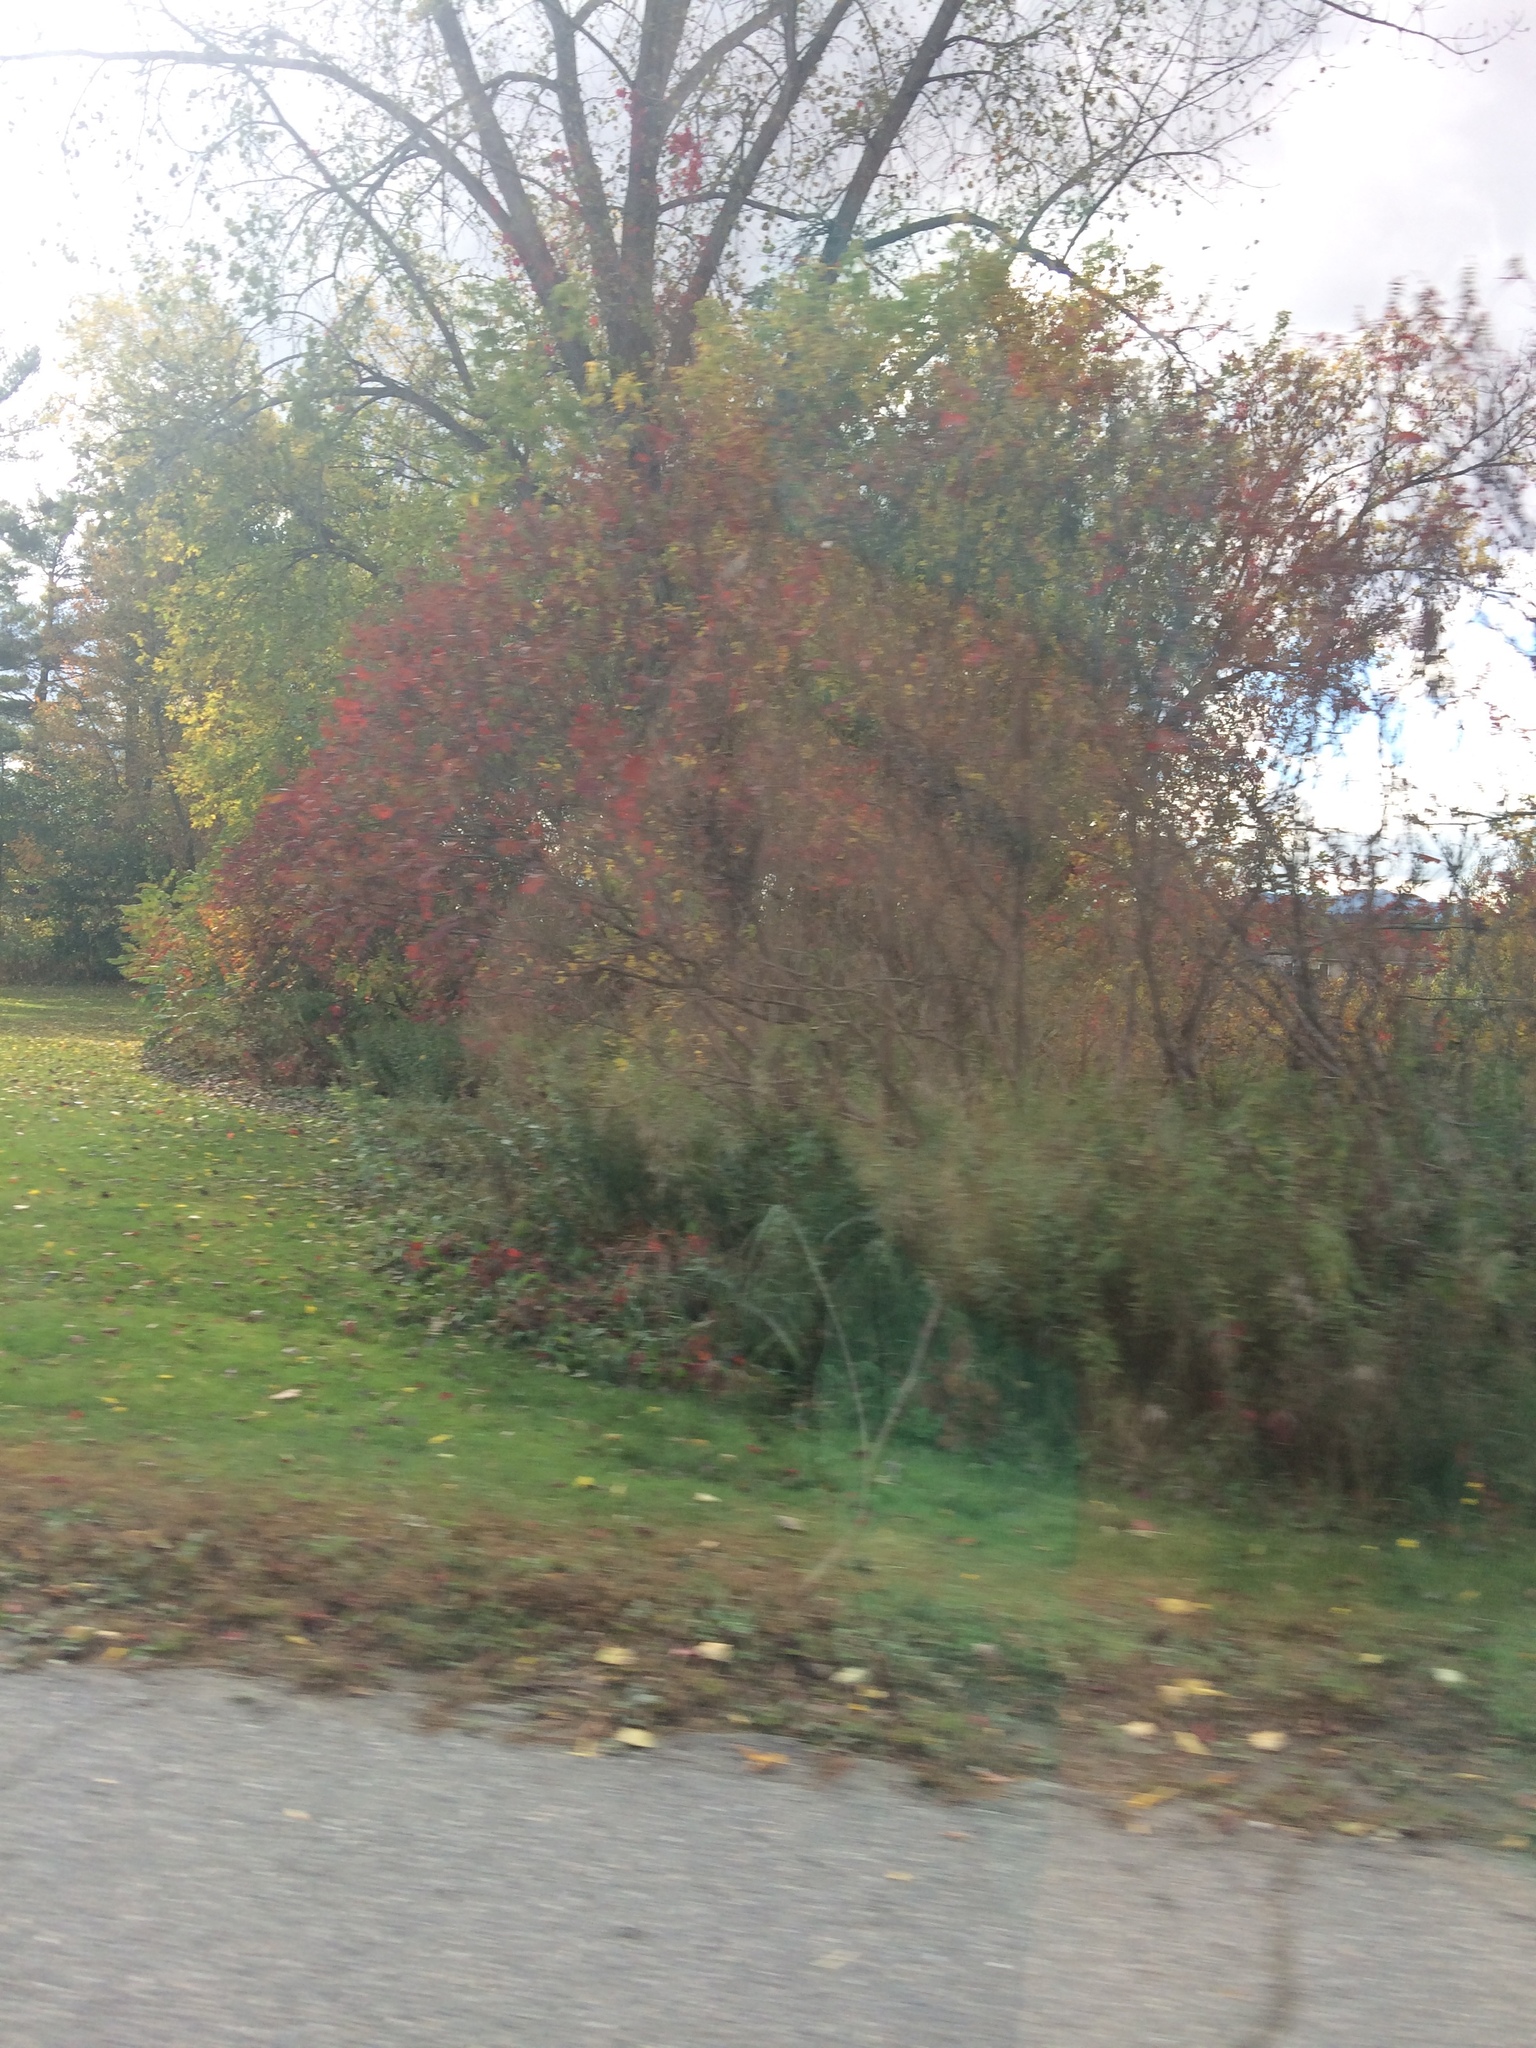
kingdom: Plantae
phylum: Tracheophyta
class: Magnoliopsida
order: Sapindales
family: Anacardiaceae
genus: Rhus
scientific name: Rhus typhina
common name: Staghorn sumac
